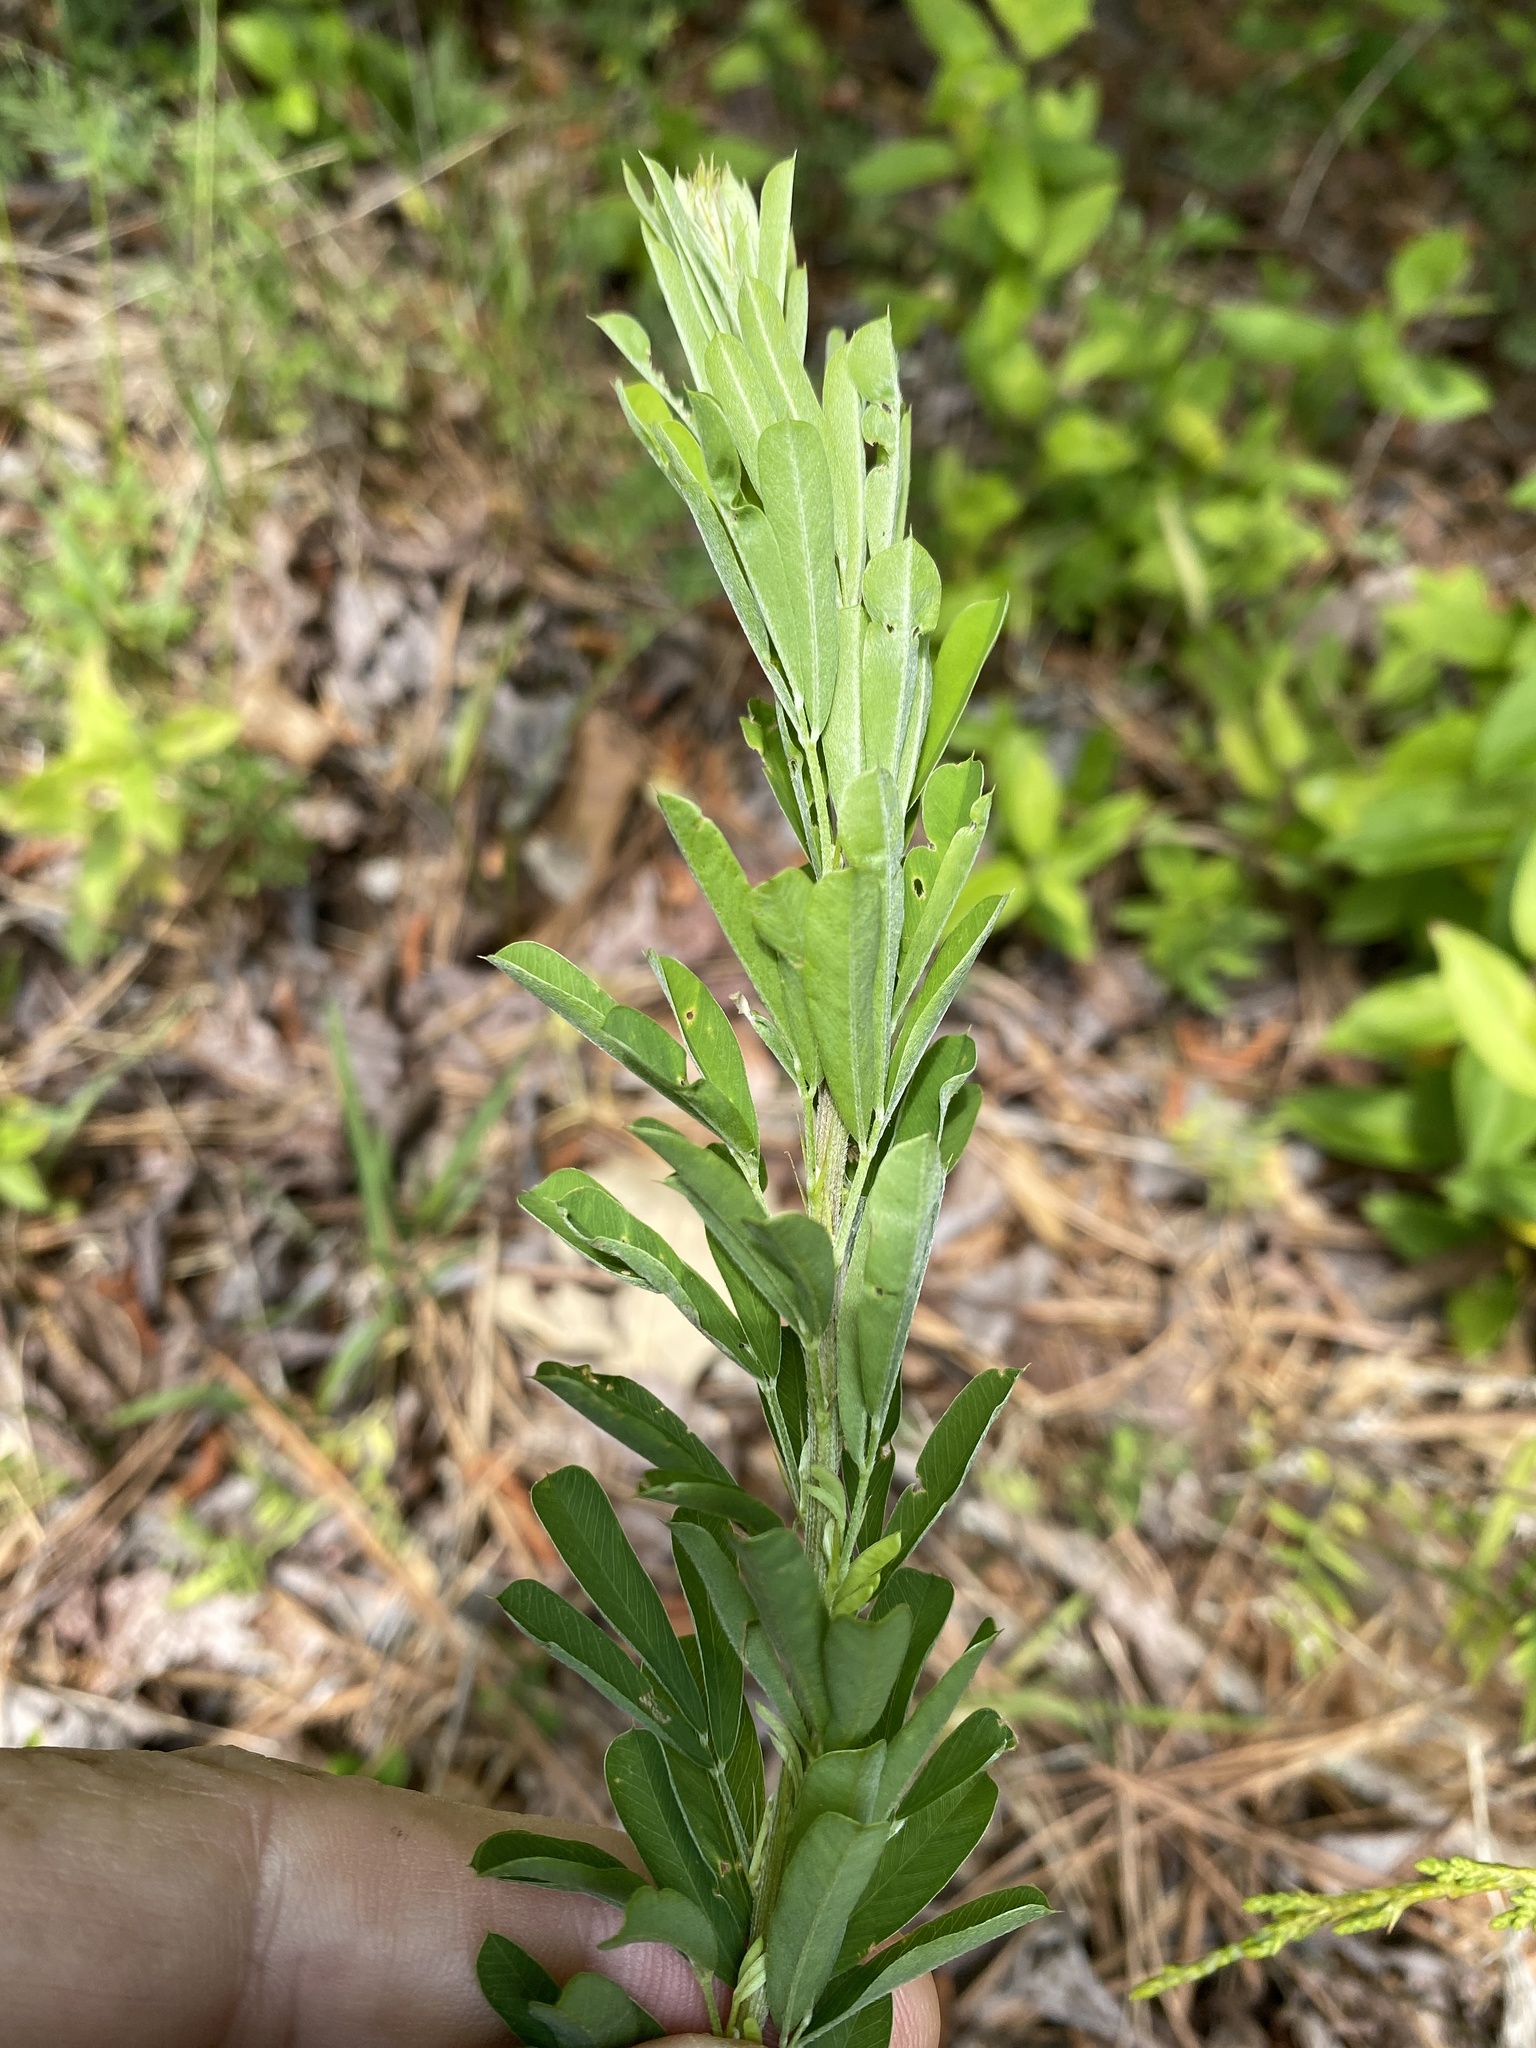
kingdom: Plantae
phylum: Tracheophyta
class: Magnoliopsida
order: Fabales
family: Fabaceae
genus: Lespedeza
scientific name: Lespedeza cuneata
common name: Chinese bush-clover
